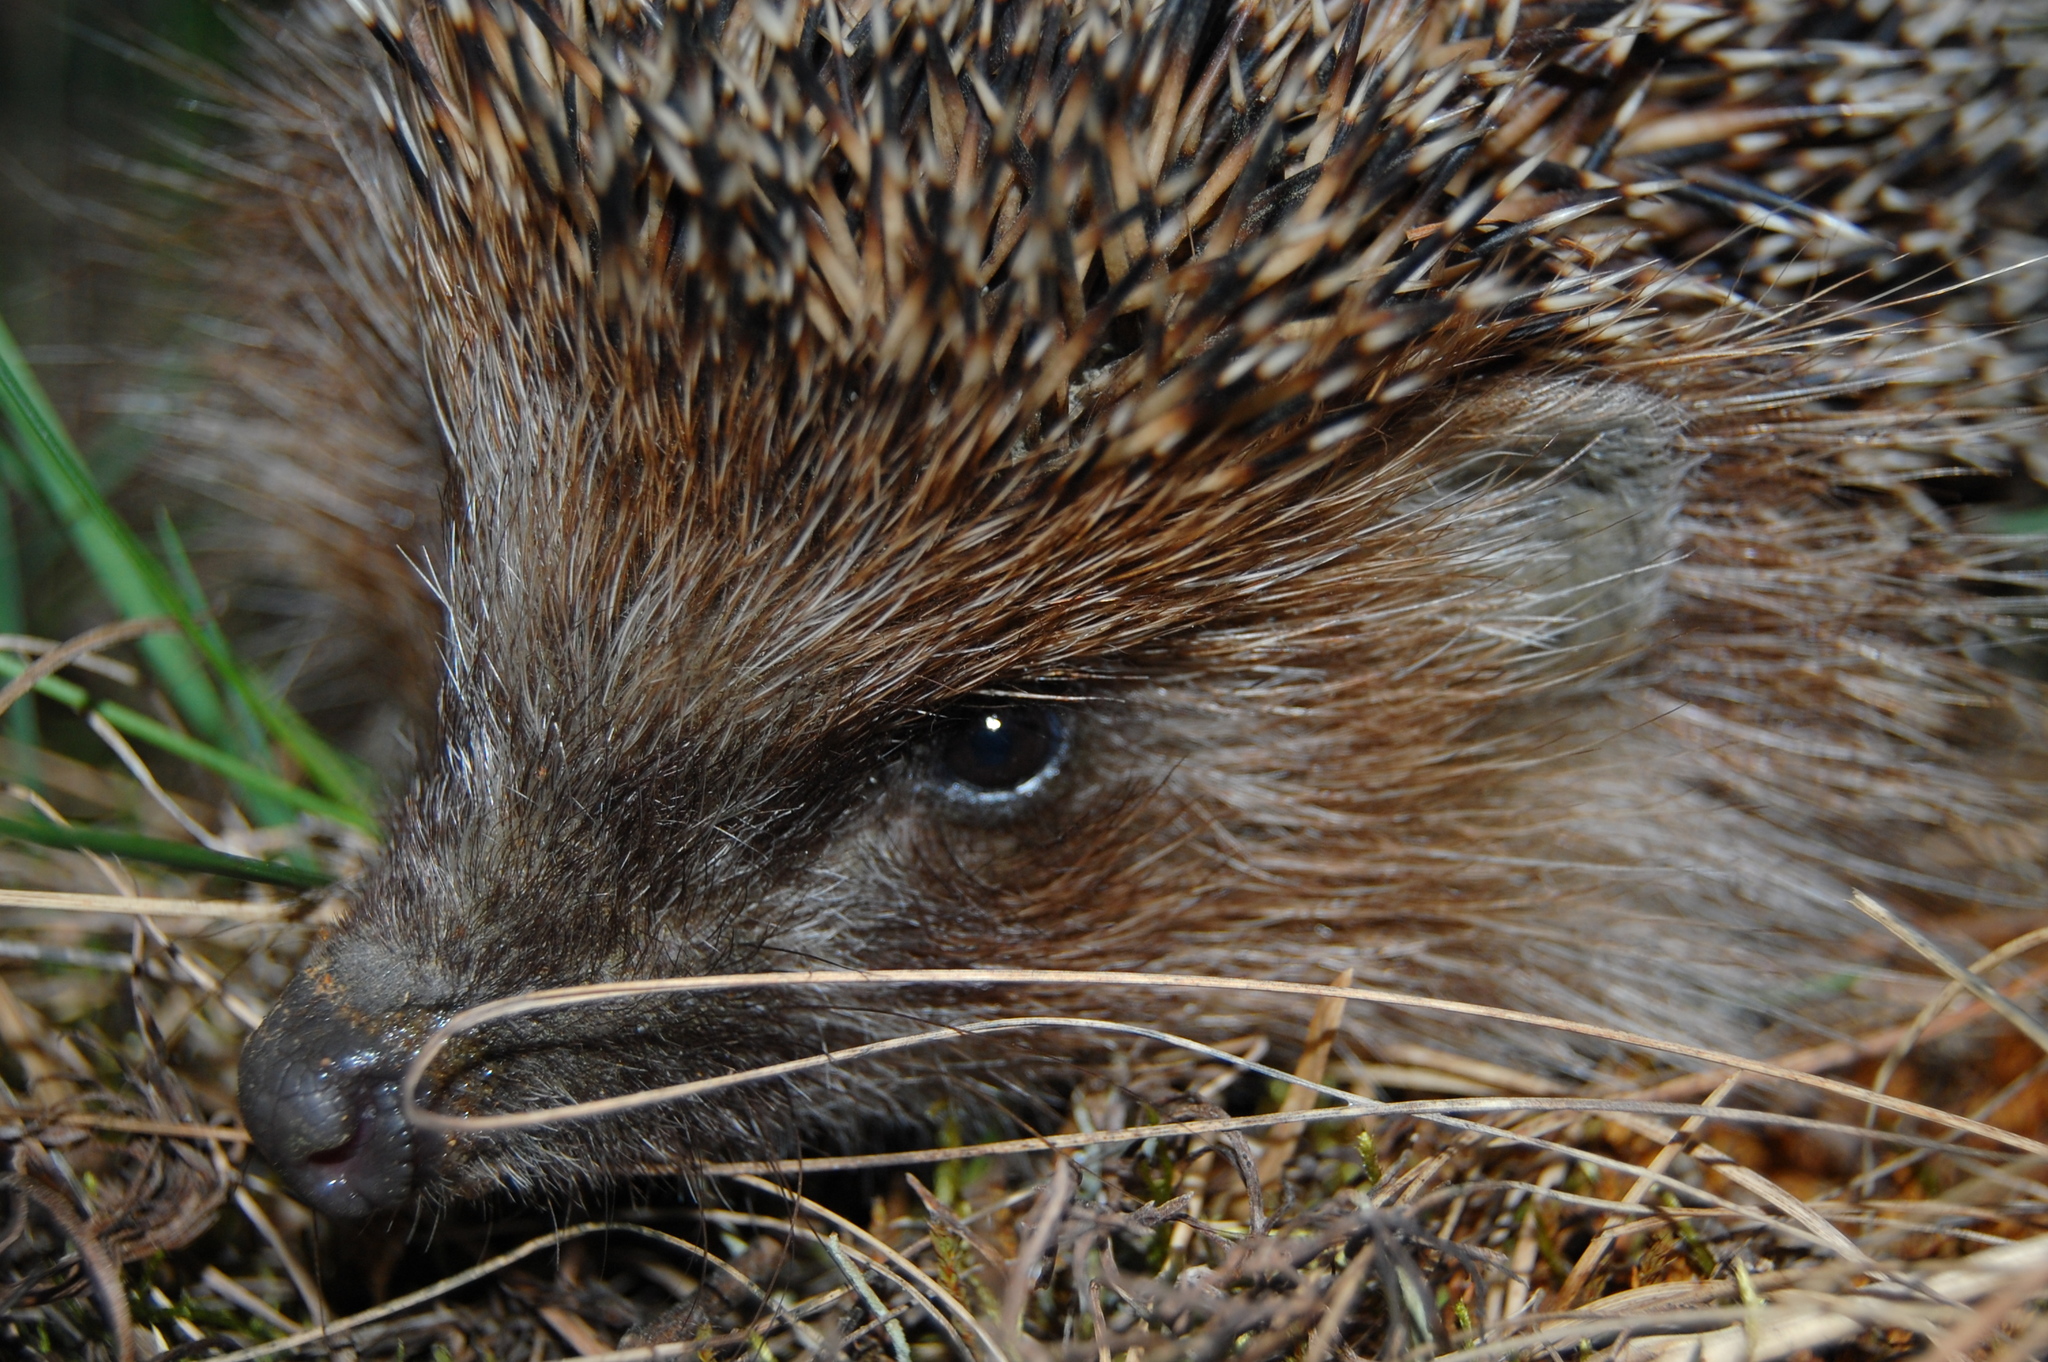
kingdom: Animalia
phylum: Chordata
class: Mammalia
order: Erinaceomorpha
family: Erinaceidae
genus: Erinaceus
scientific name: Erinaceus roumanicus
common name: Northern white-breasted hedgehog
